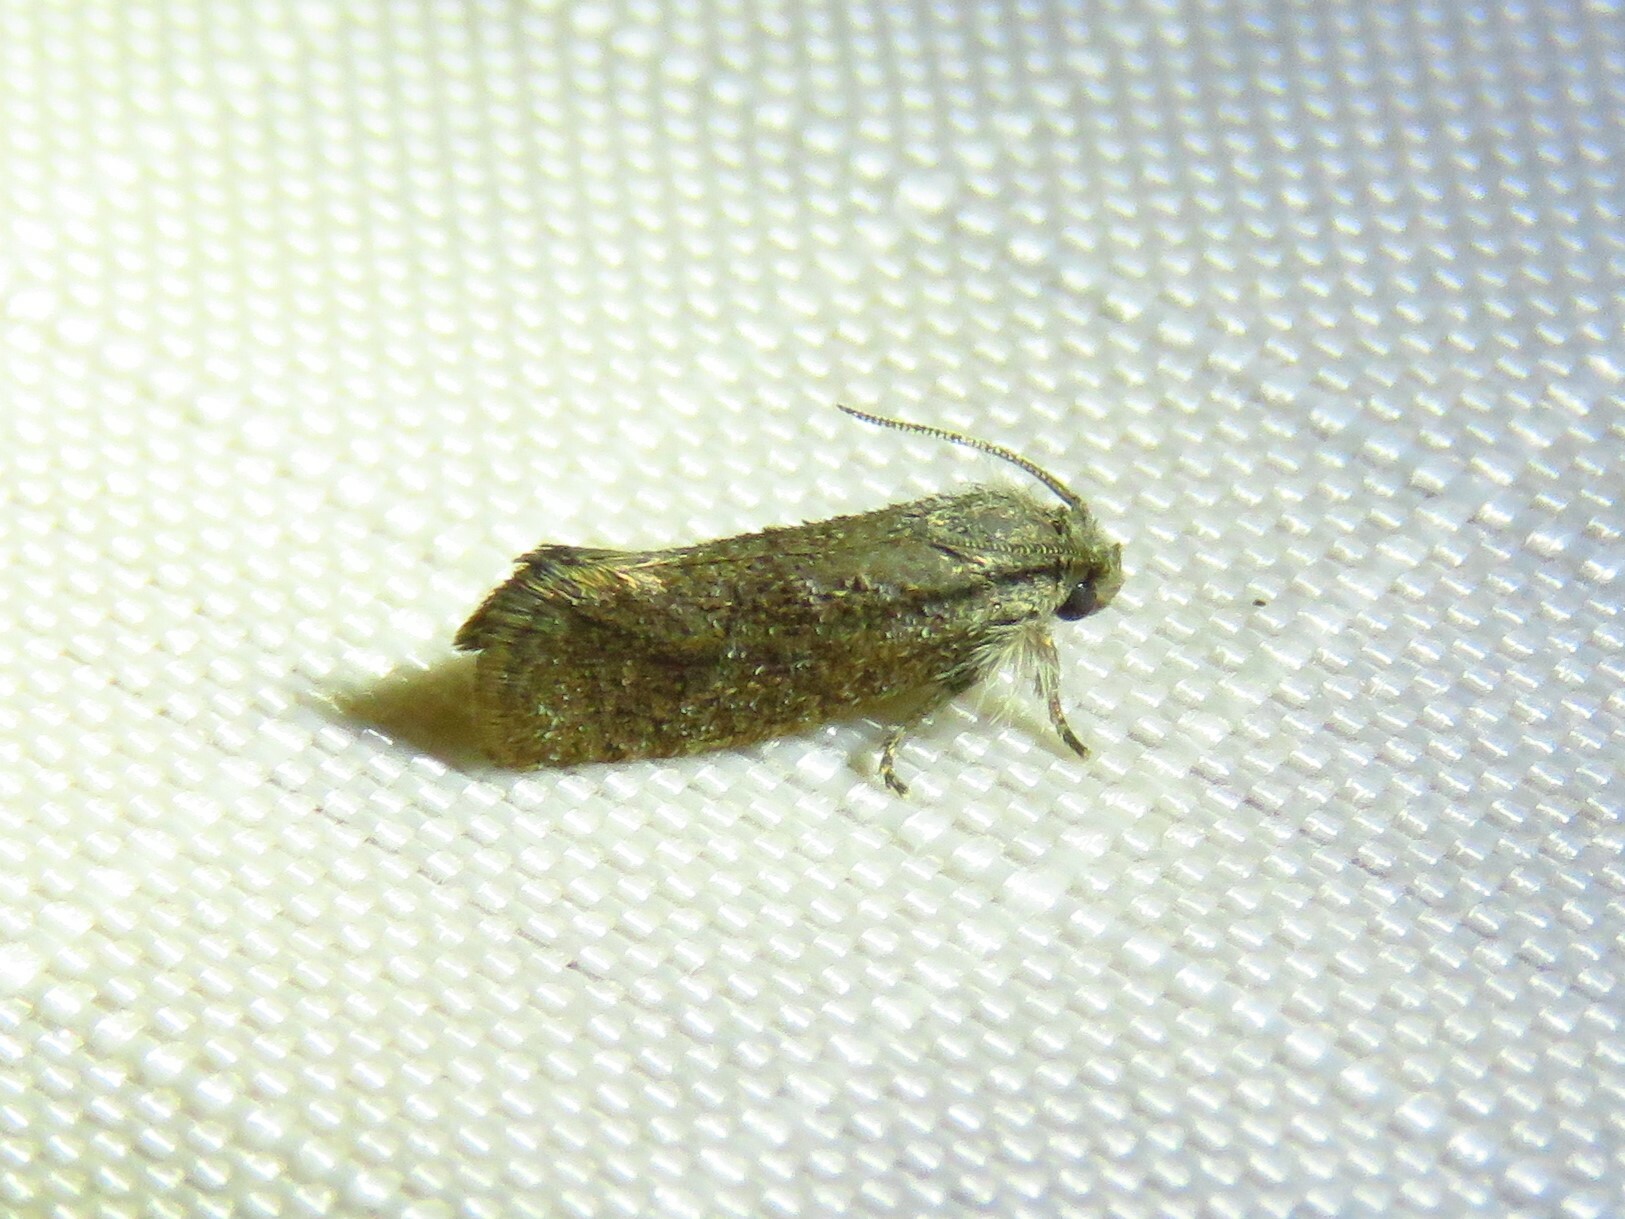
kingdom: Animalia
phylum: Arthropoda
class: Insecta
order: Lepidoptera
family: Tineidae
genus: Acrolophus
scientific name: Acrolophus heppneri
